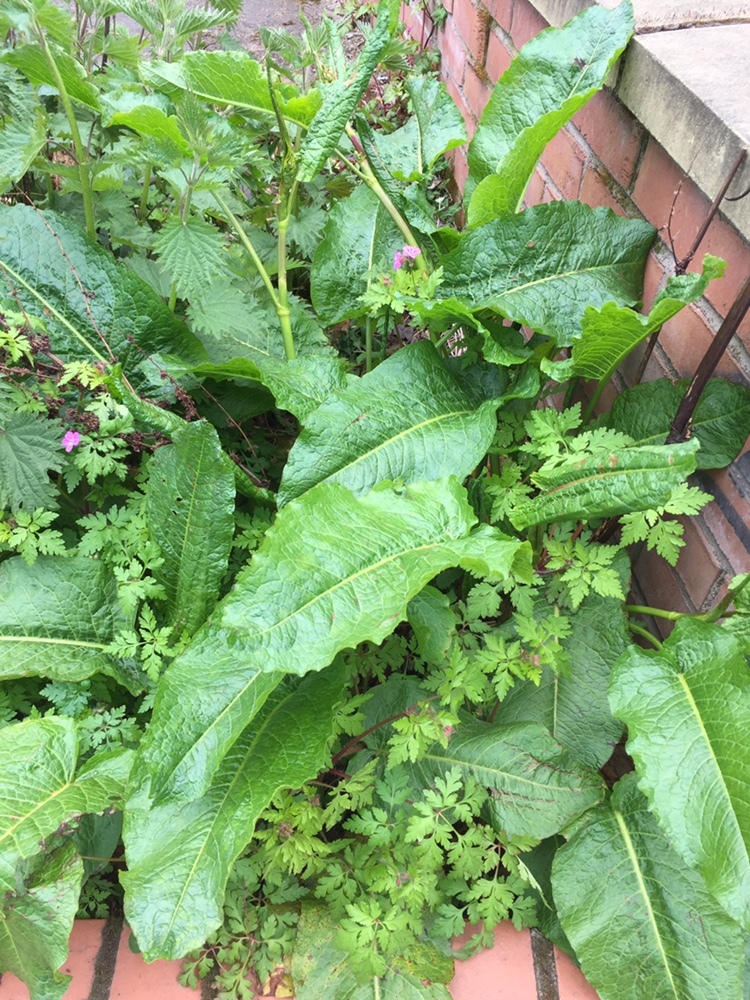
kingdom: Plantae
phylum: Tracheophyta
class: Magnoliopsida
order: Caryophyllales
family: Polygonaceae
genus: Rumex
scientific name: Rumex obtusifolius
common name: Bitter dock
